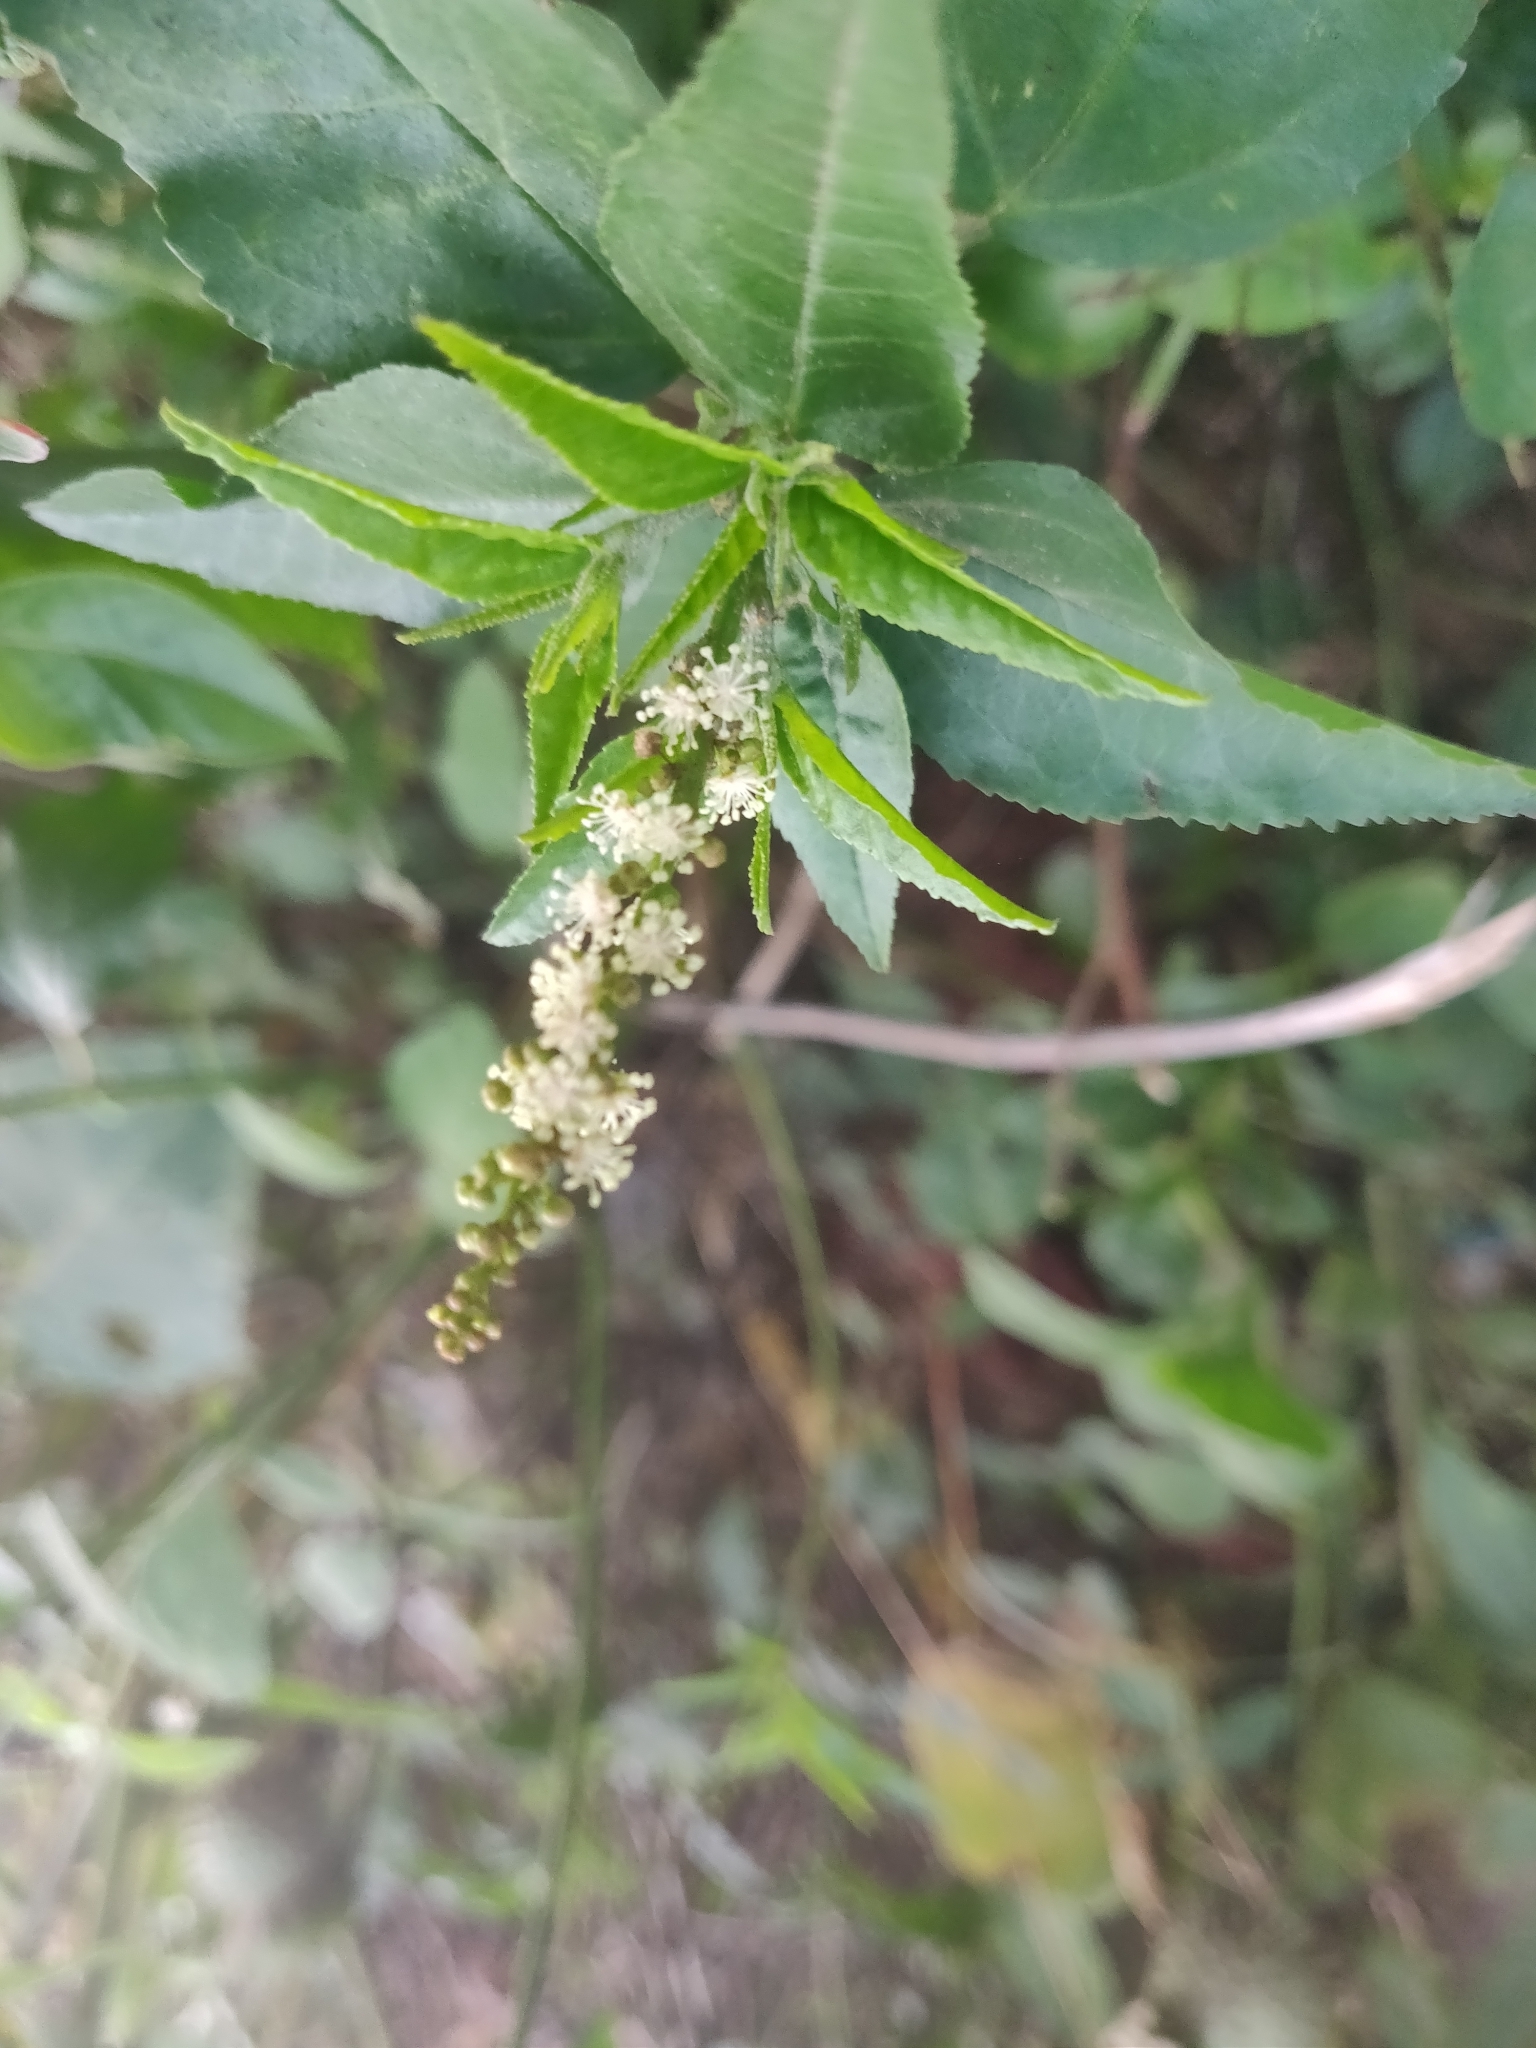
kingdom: Plantae
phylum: Tracheophyta
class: Magnoliopsida
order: Malpighiales
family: Euphorbiaceae
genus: Croton
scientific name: Croton bonplandianus
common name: Bonpland's croton
